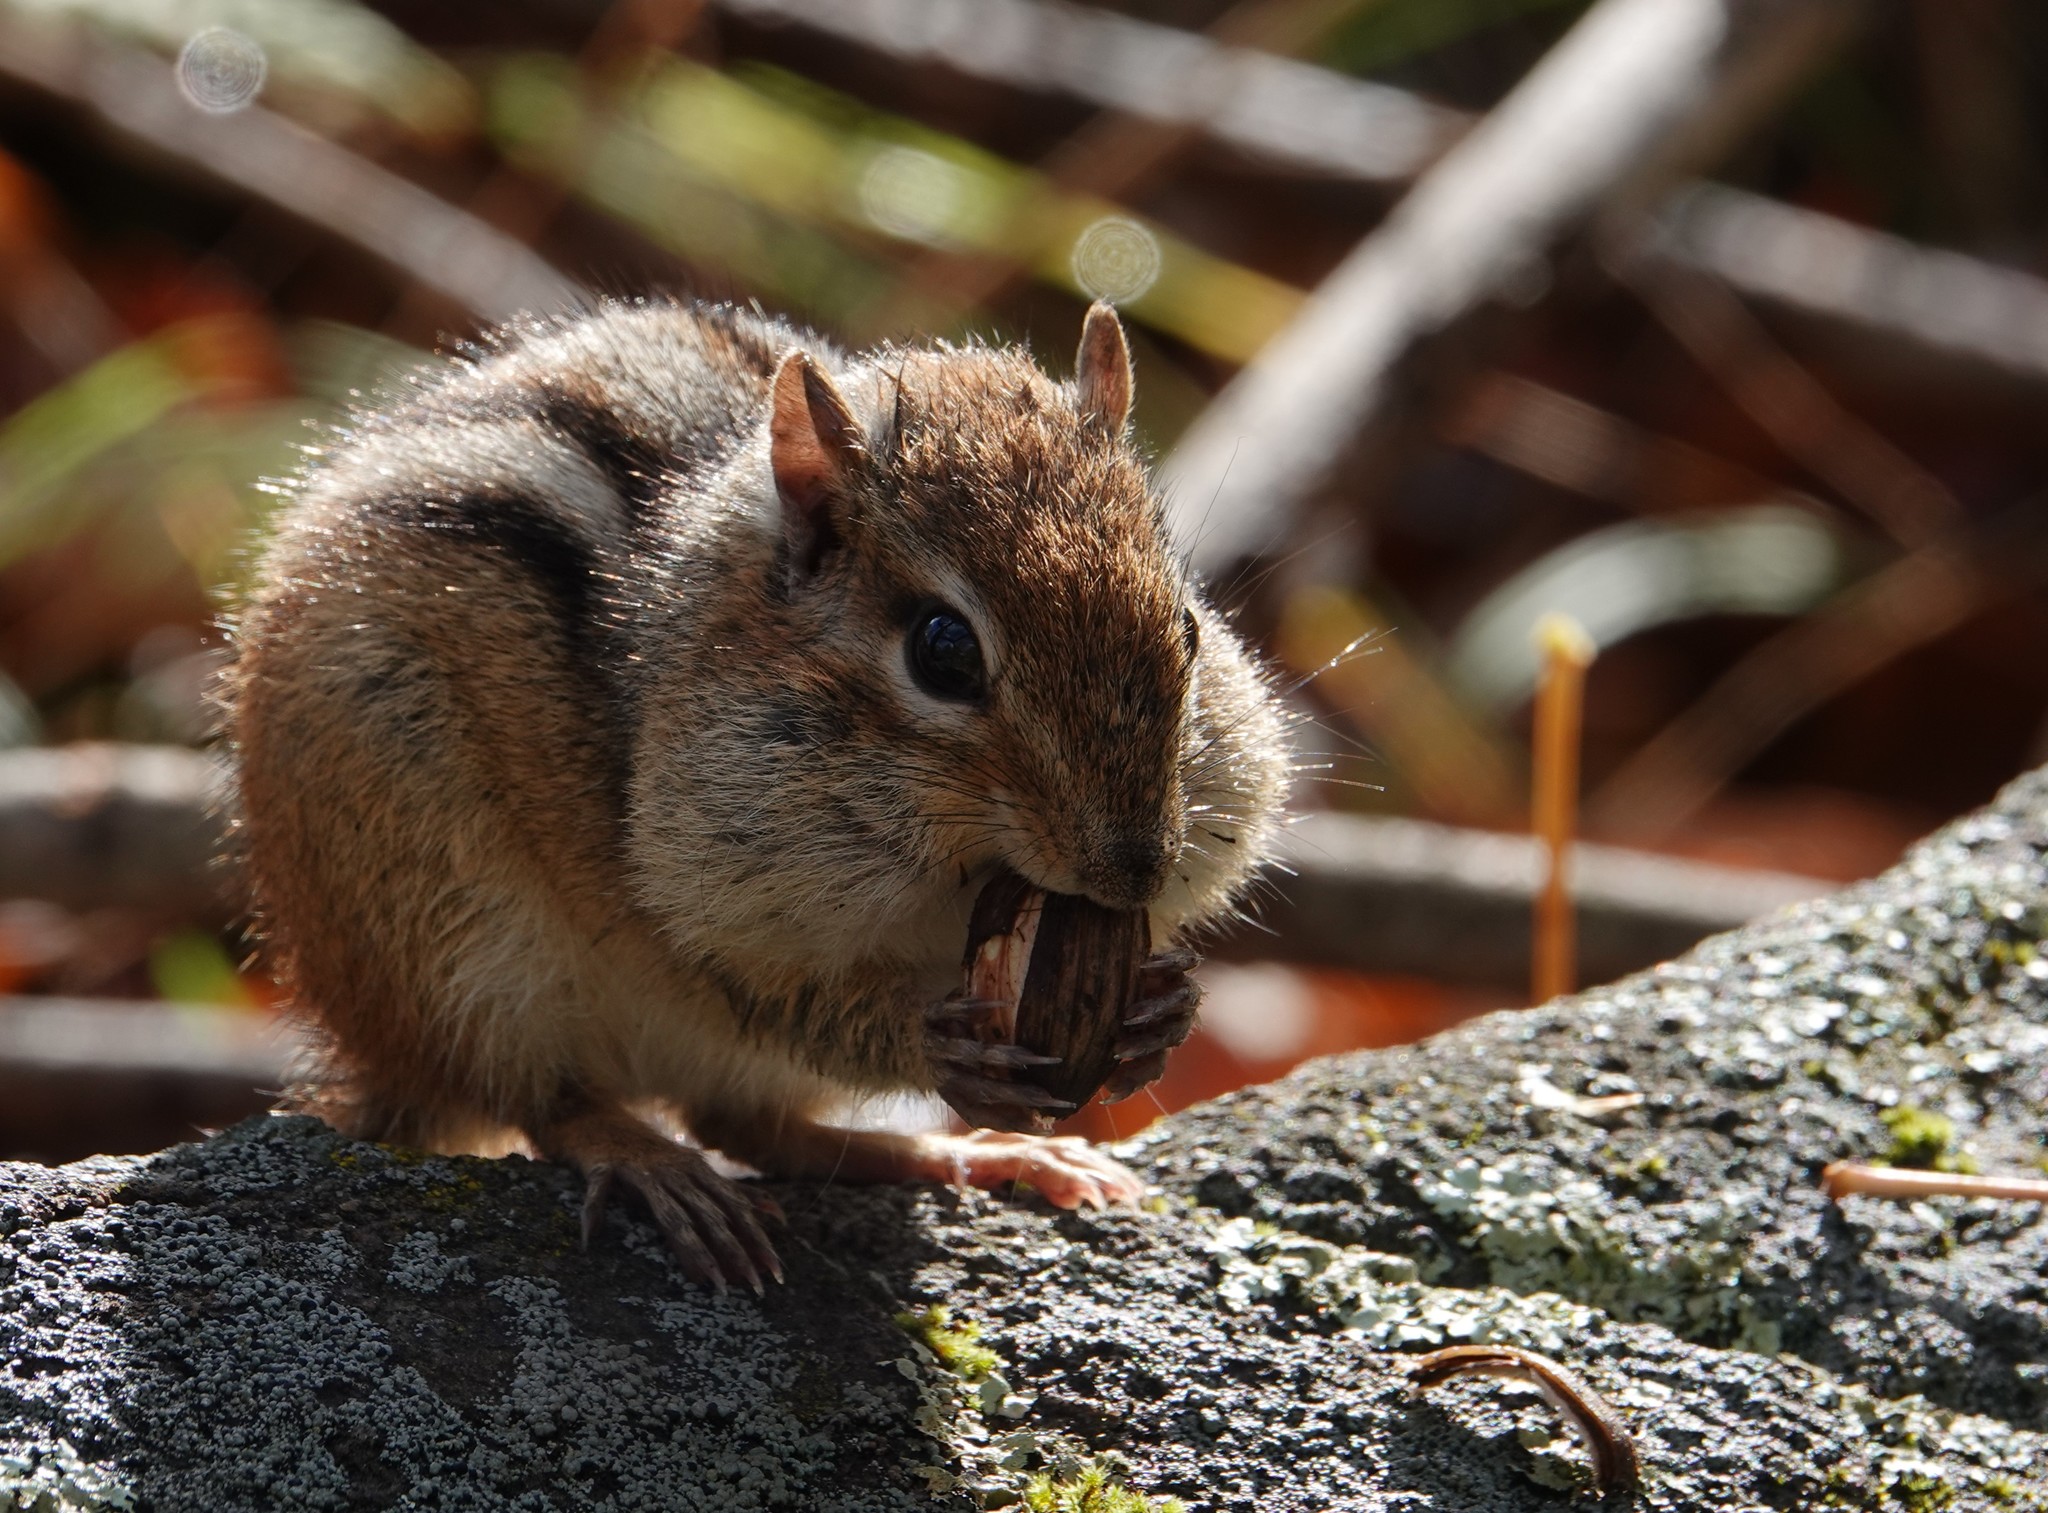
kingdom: Animalia
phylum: Chordata
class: Mammalia
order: Rodentia
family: Sciuridae
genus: Tamias
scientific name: Tamias striatus
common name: Eastern chipmunk
